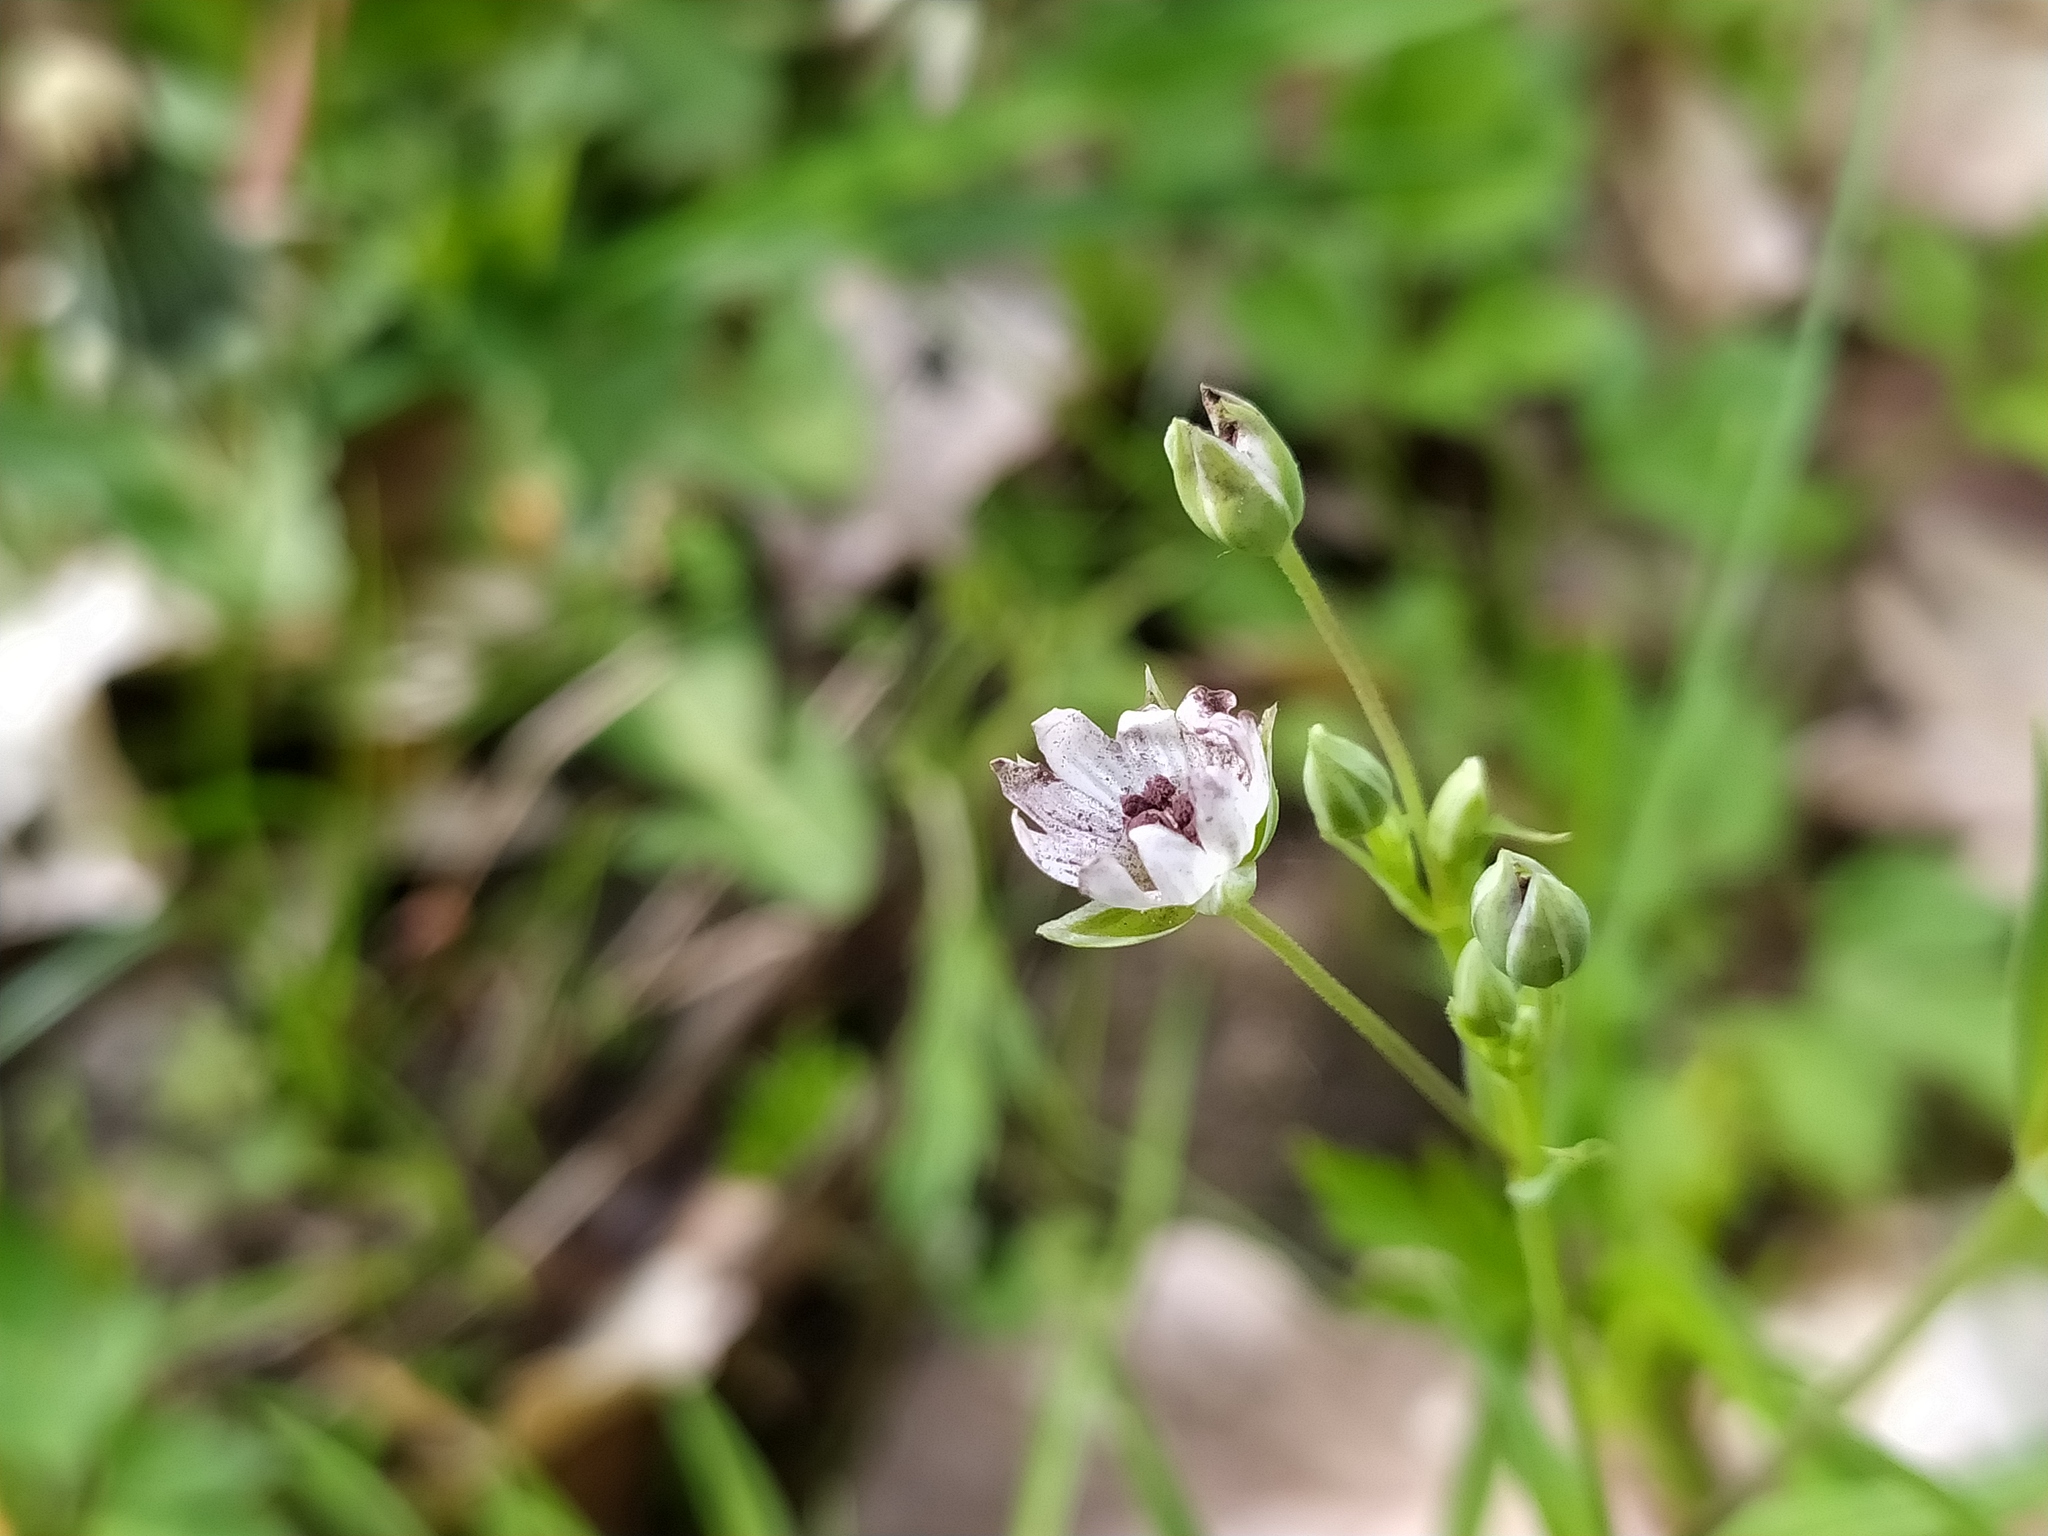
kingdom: Fungi
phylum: Basidiomycota
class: Microbotryomycetes
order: Microbotryales
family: Microbotryaceae
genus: Microbotryum
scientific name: Microbotryum stellariae
